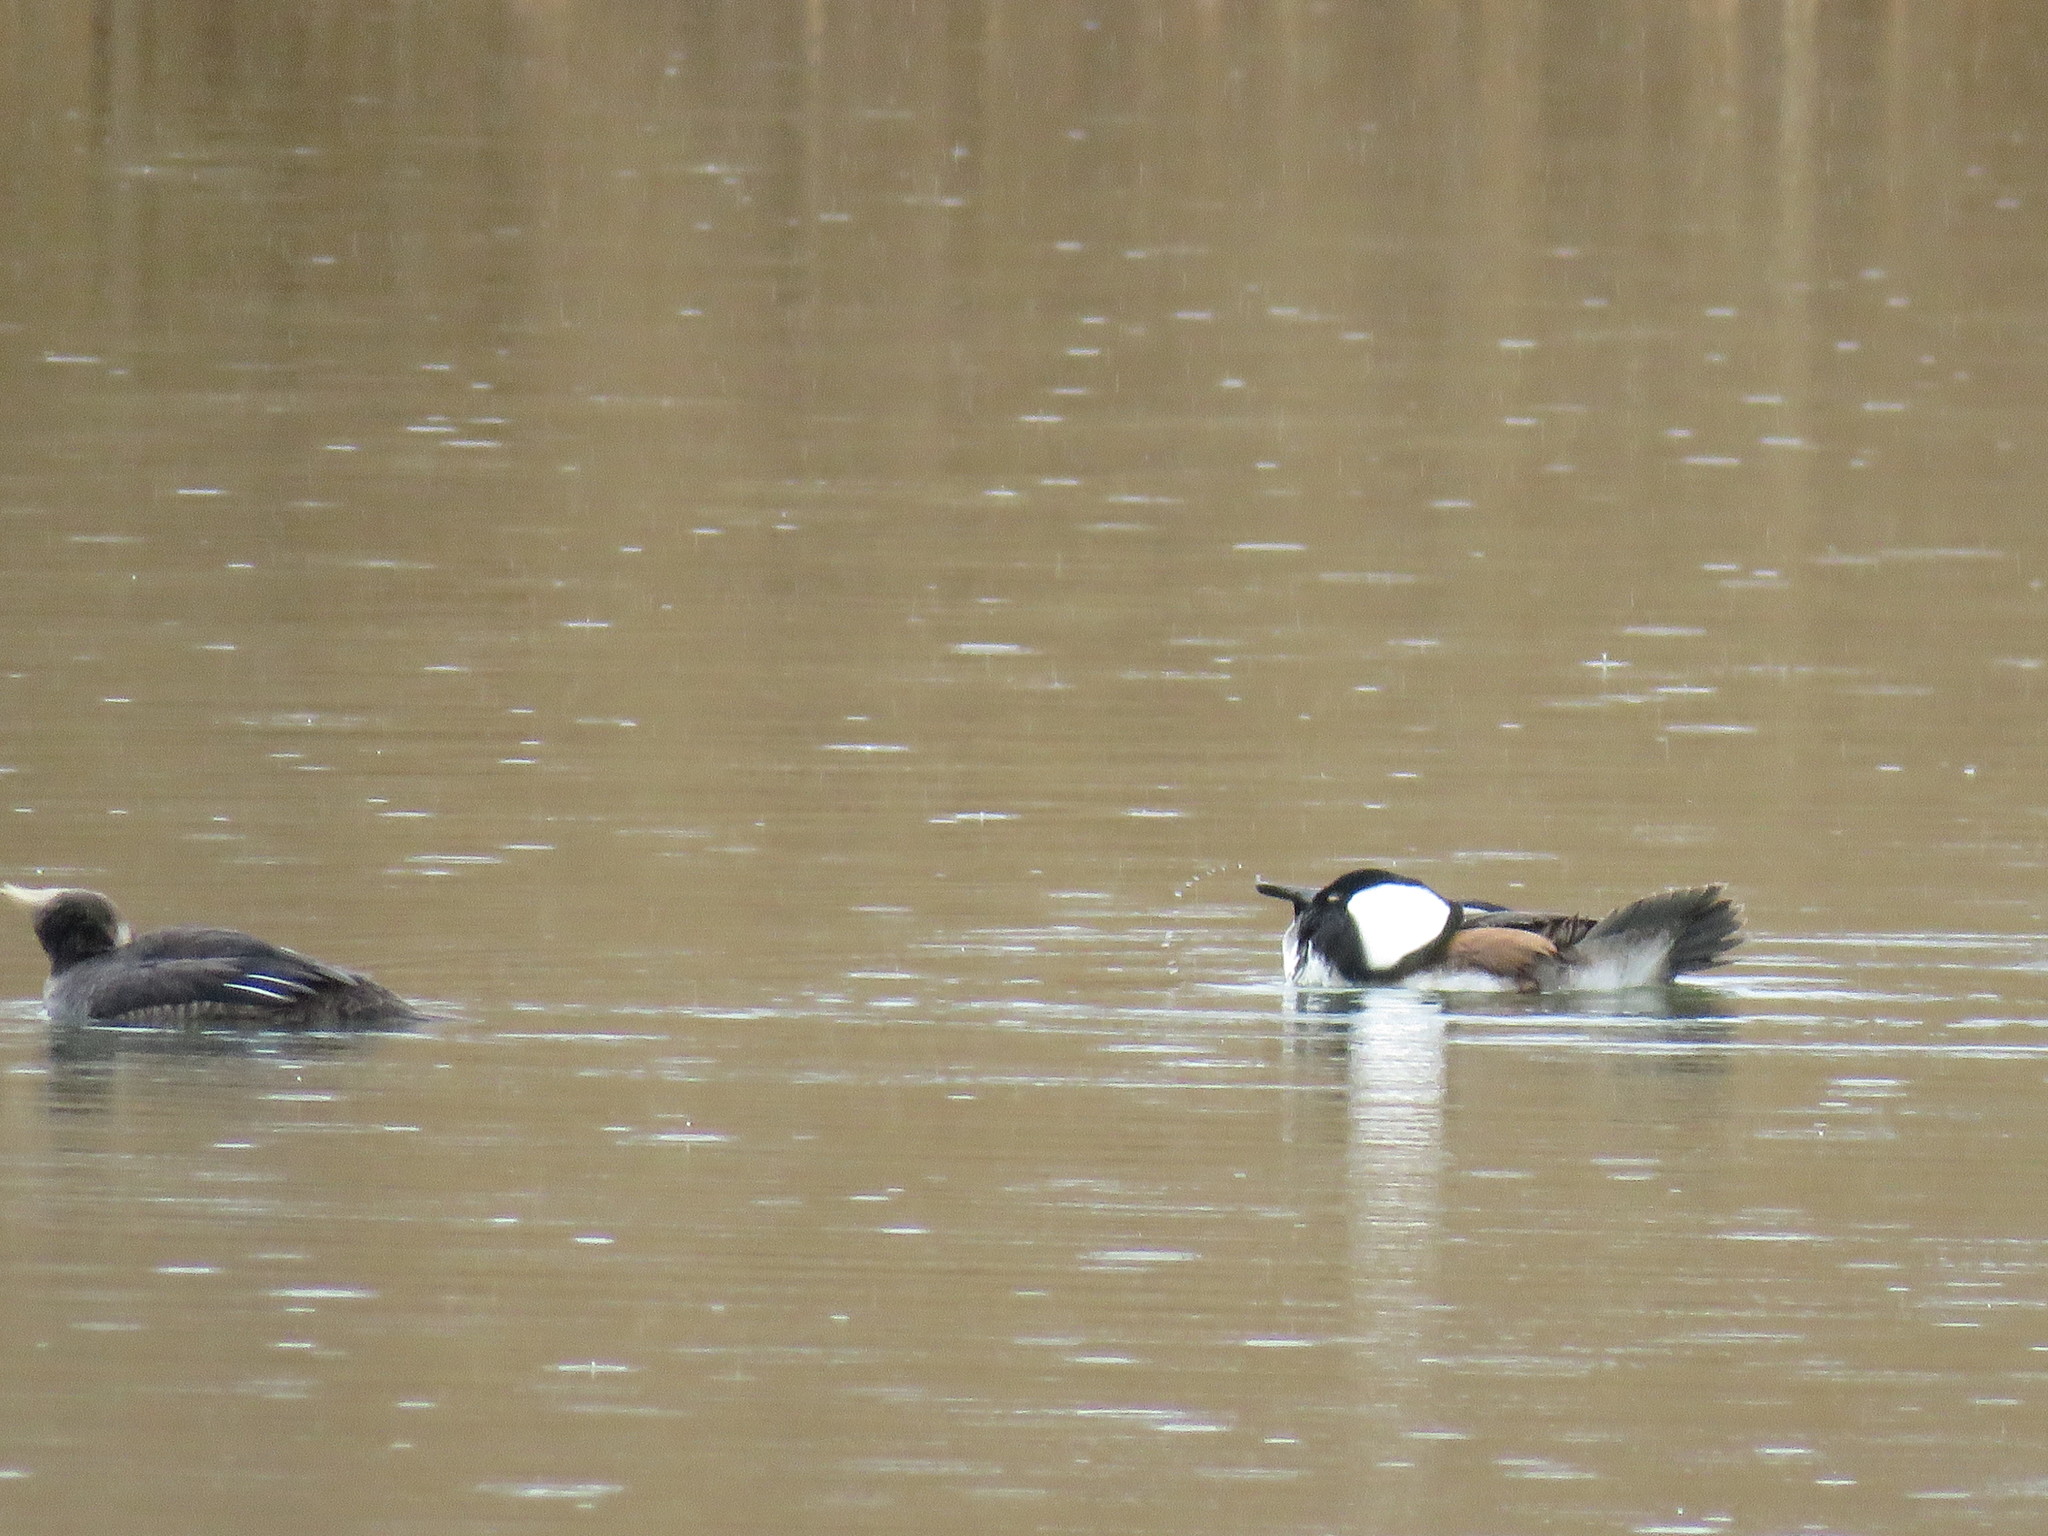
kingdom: Animalia
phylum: Chordata
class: Aves
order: Anseriformes
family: Anatidae
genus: Lophodytes
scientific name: Lophodytes cucullatus
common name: Hooded merganser
